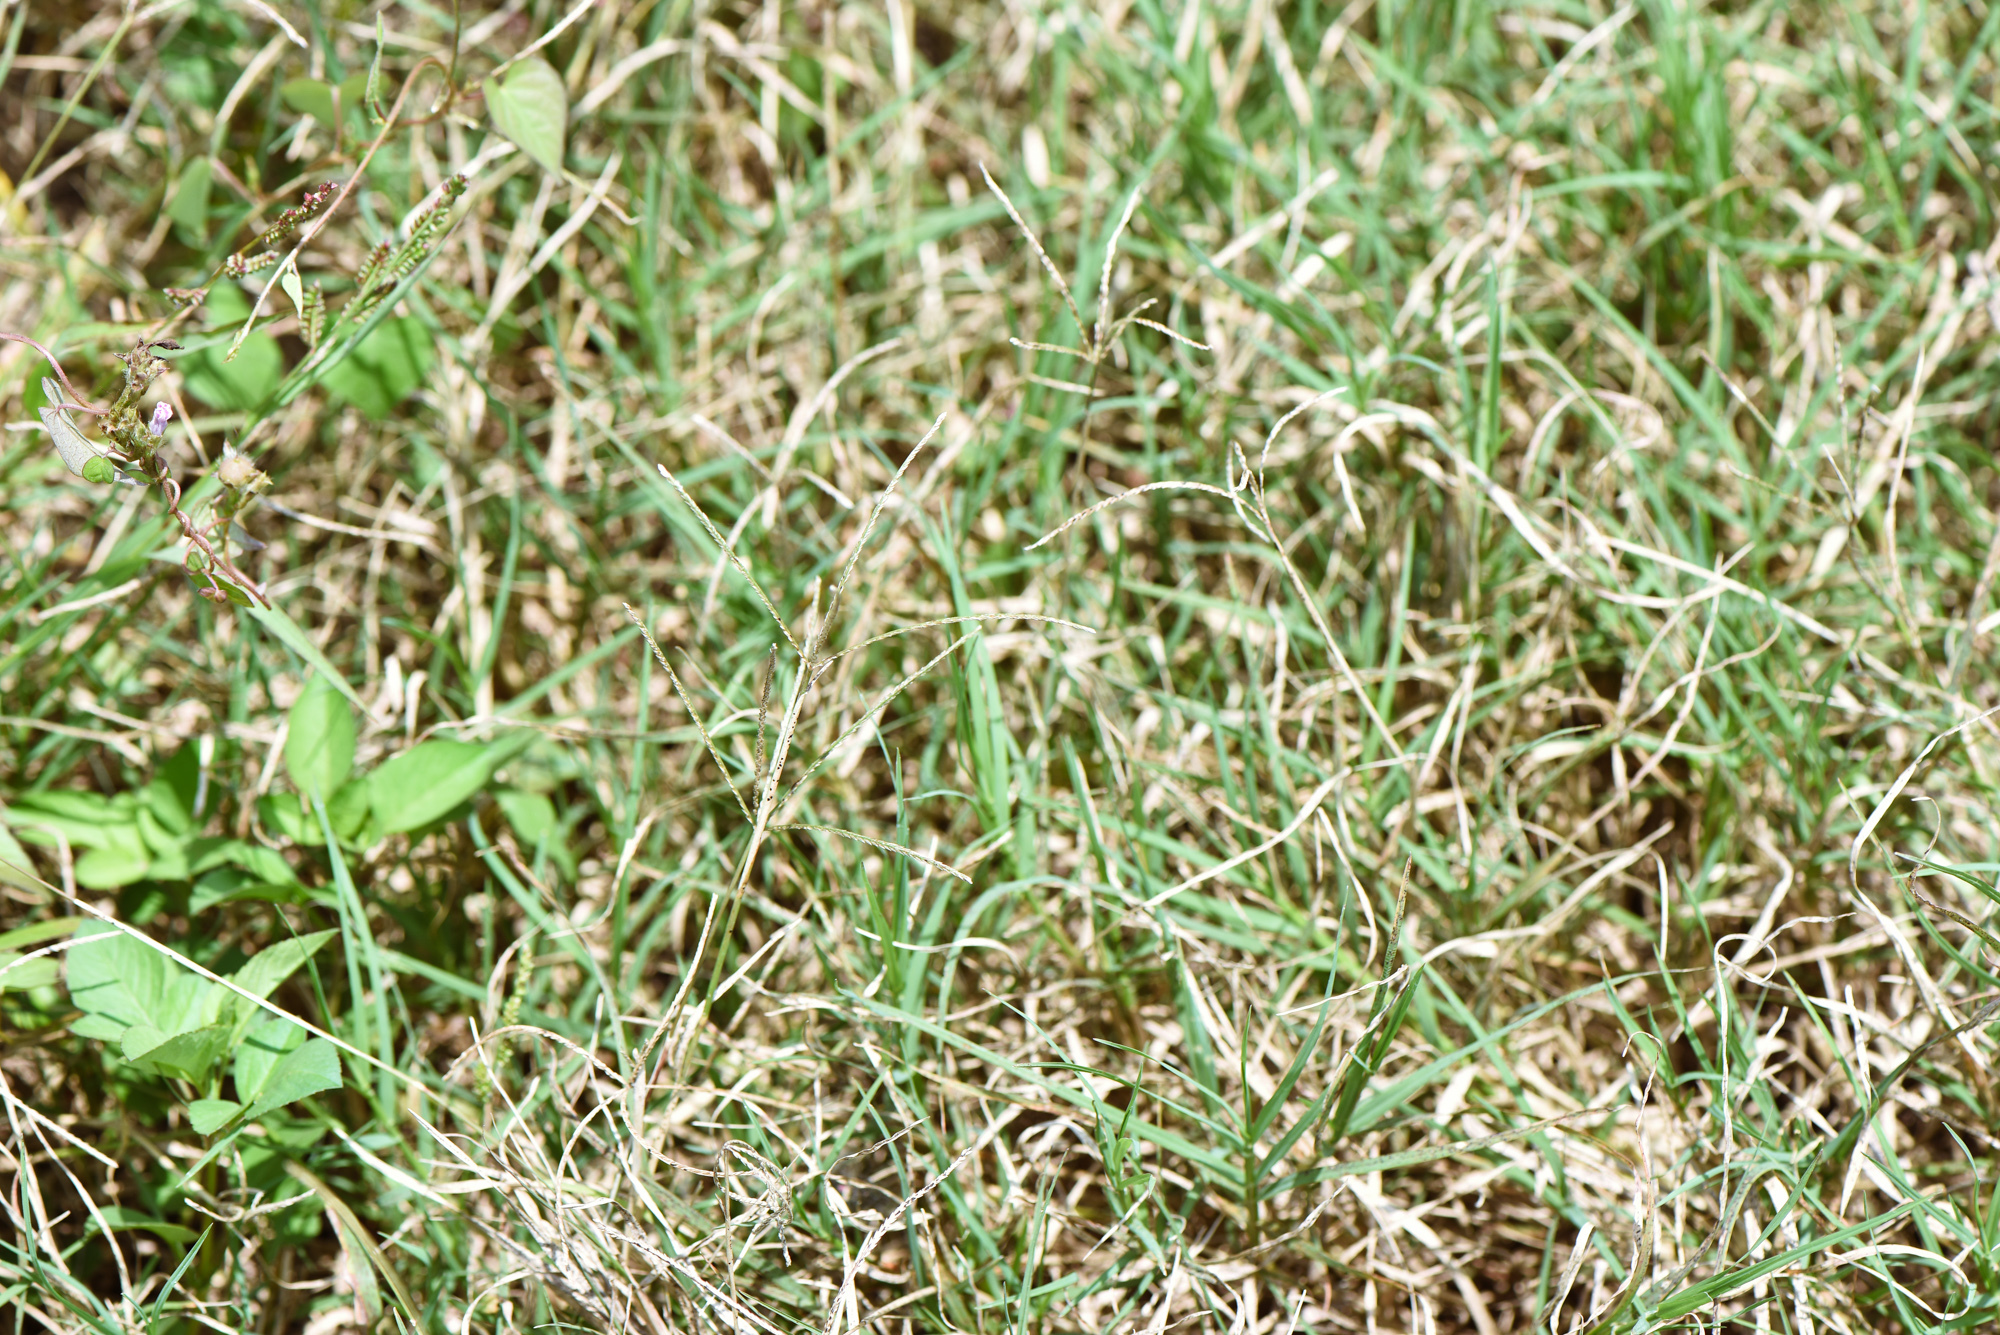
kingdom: Plantae
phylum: Tracheophyta
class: Liliopsida
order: Poales
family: Poaceae
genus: Cynodon
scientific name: Cynodon dactylon
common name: Bermuda grass
